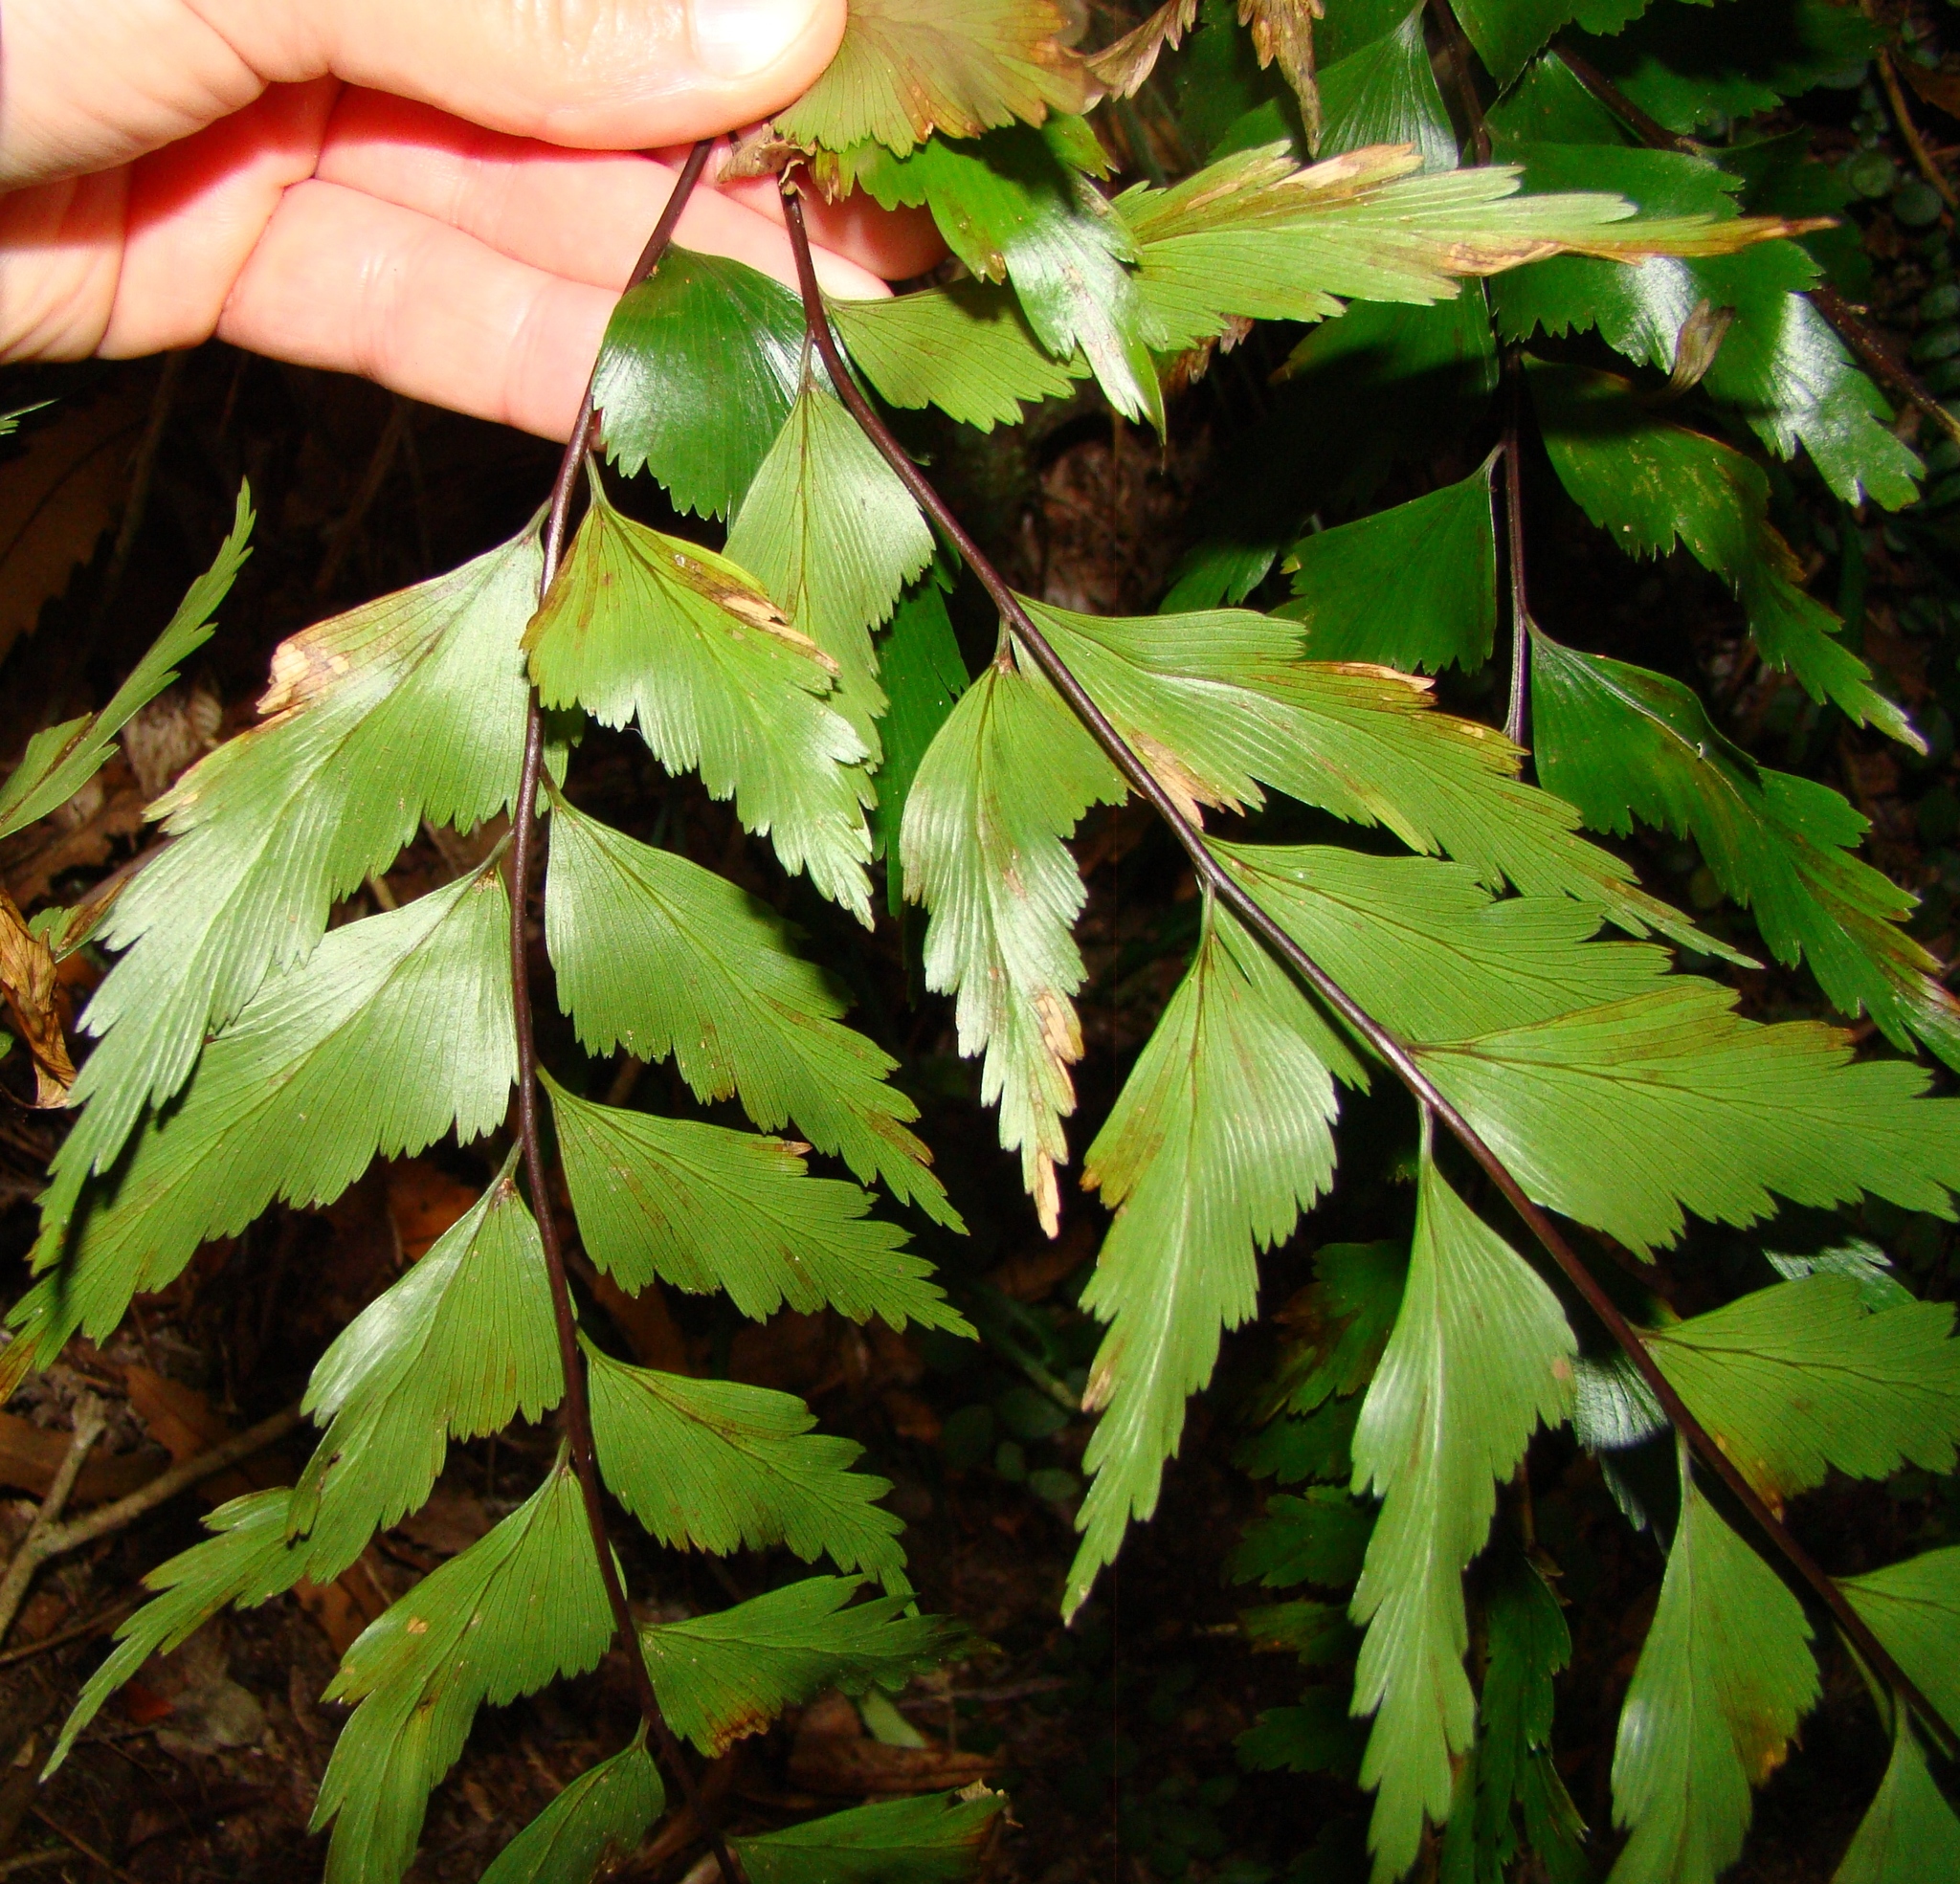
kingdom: Plantae
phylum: Tracheophyta
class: Polypodiopsida
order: Polypodiales
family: Aspleniaceae
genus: Asplenium
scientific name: Asplenium polyodon
